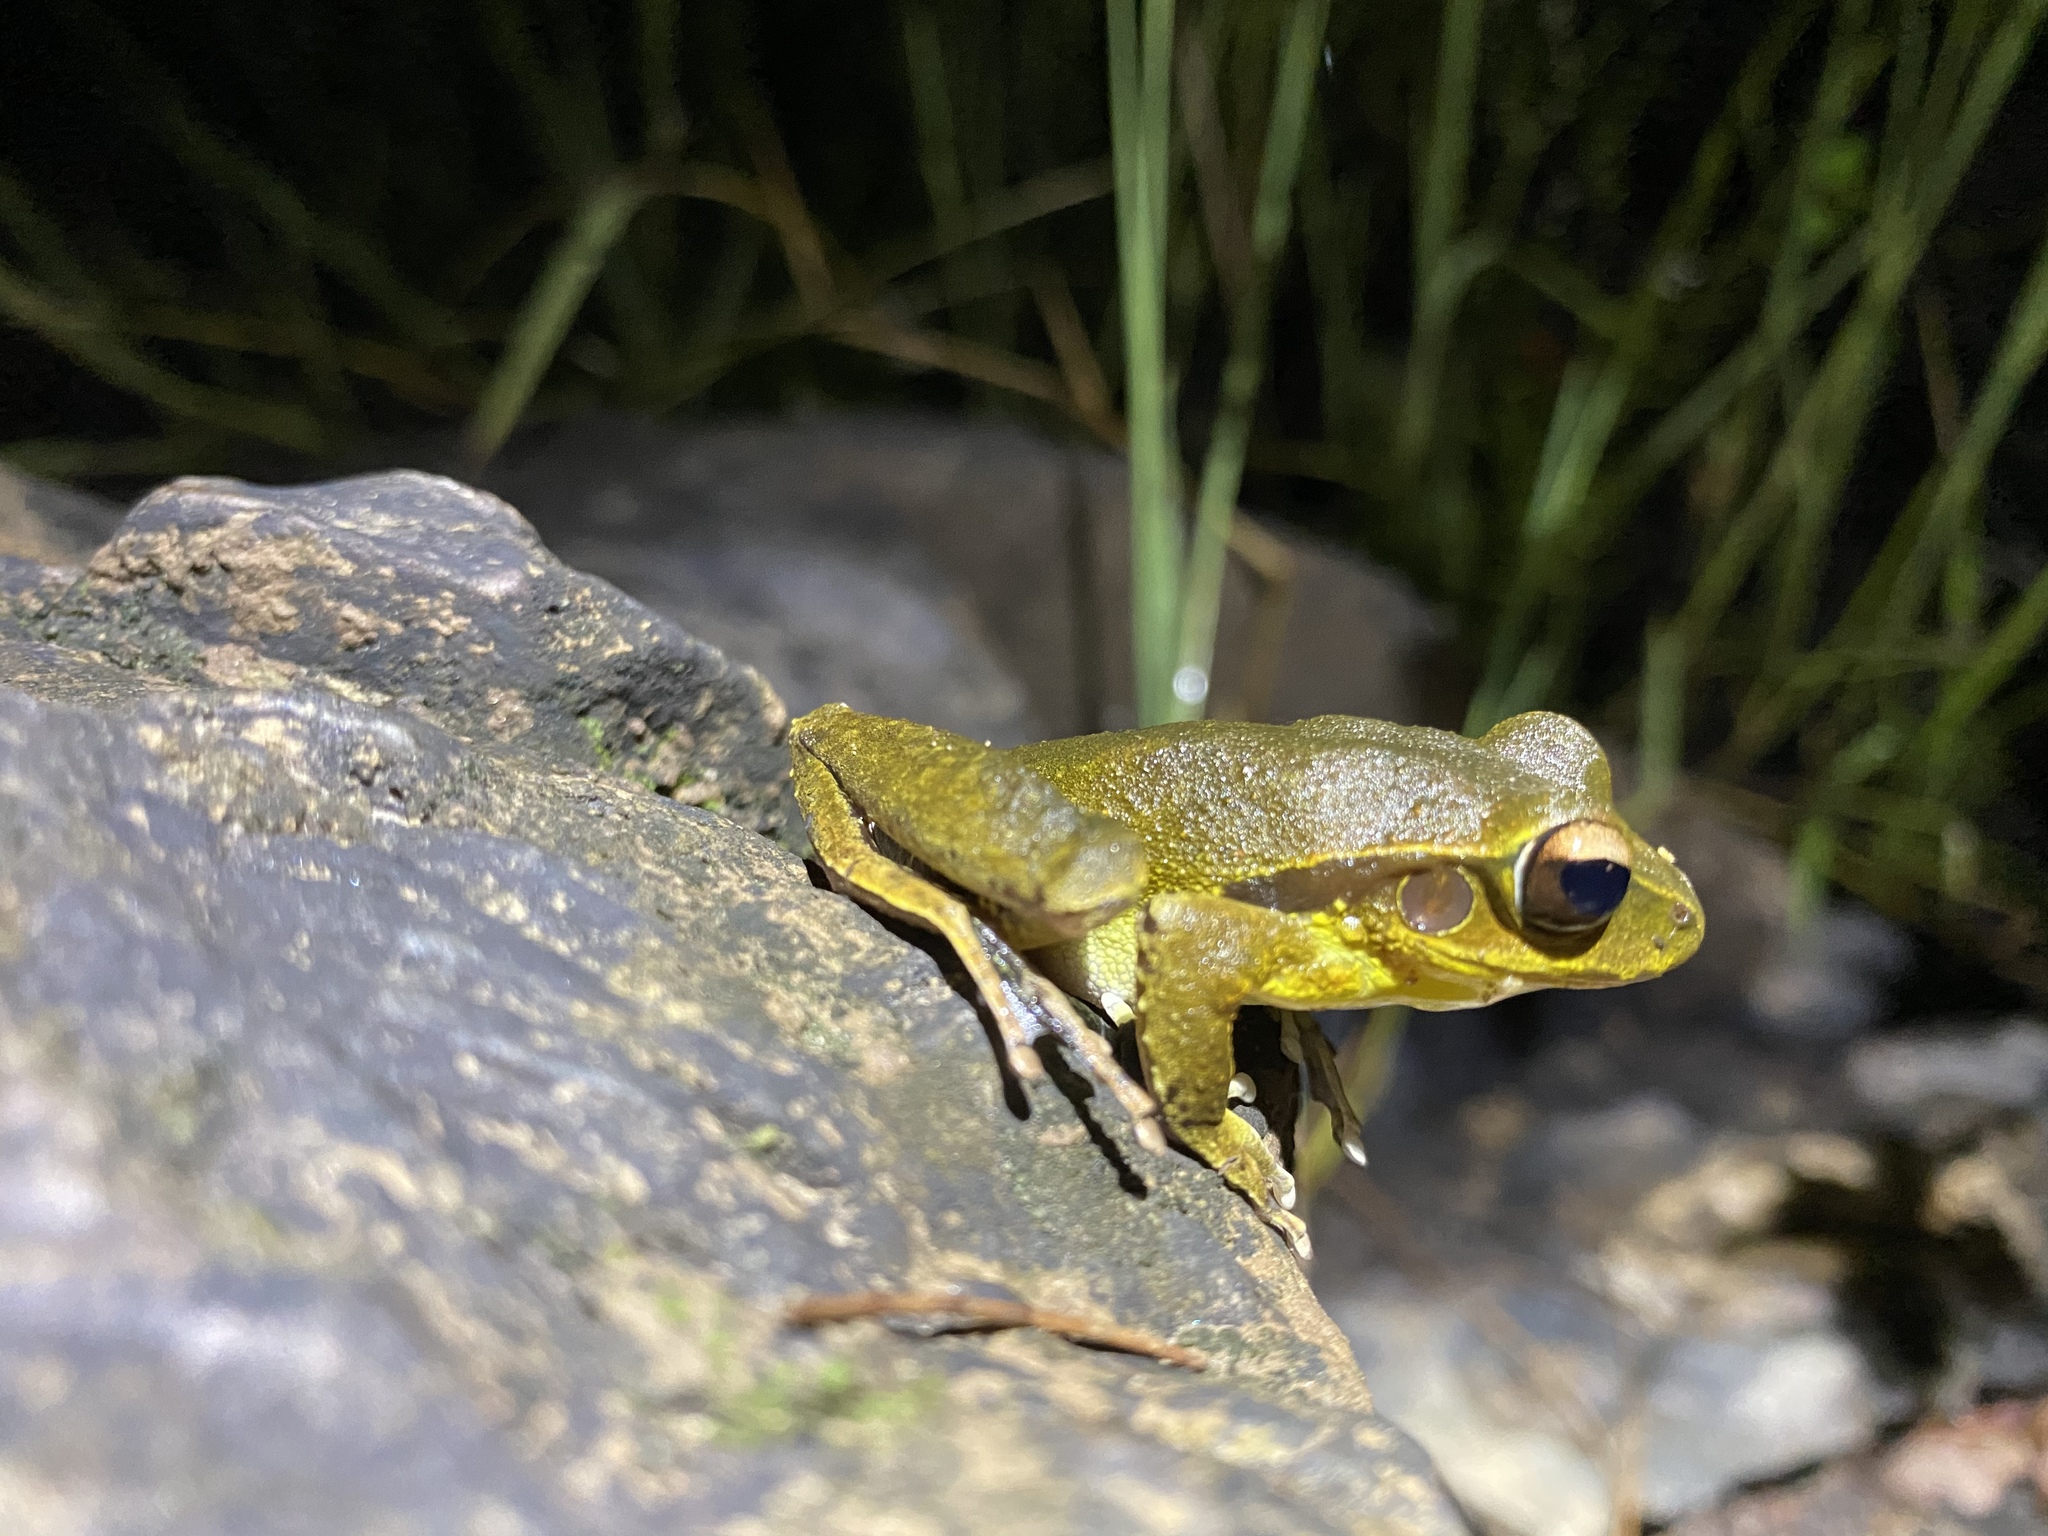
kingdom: Animalia
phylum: Chordata
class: Amphibia
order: Anura
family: Hylidae
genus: Ranoidea
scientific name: Ranoidea
